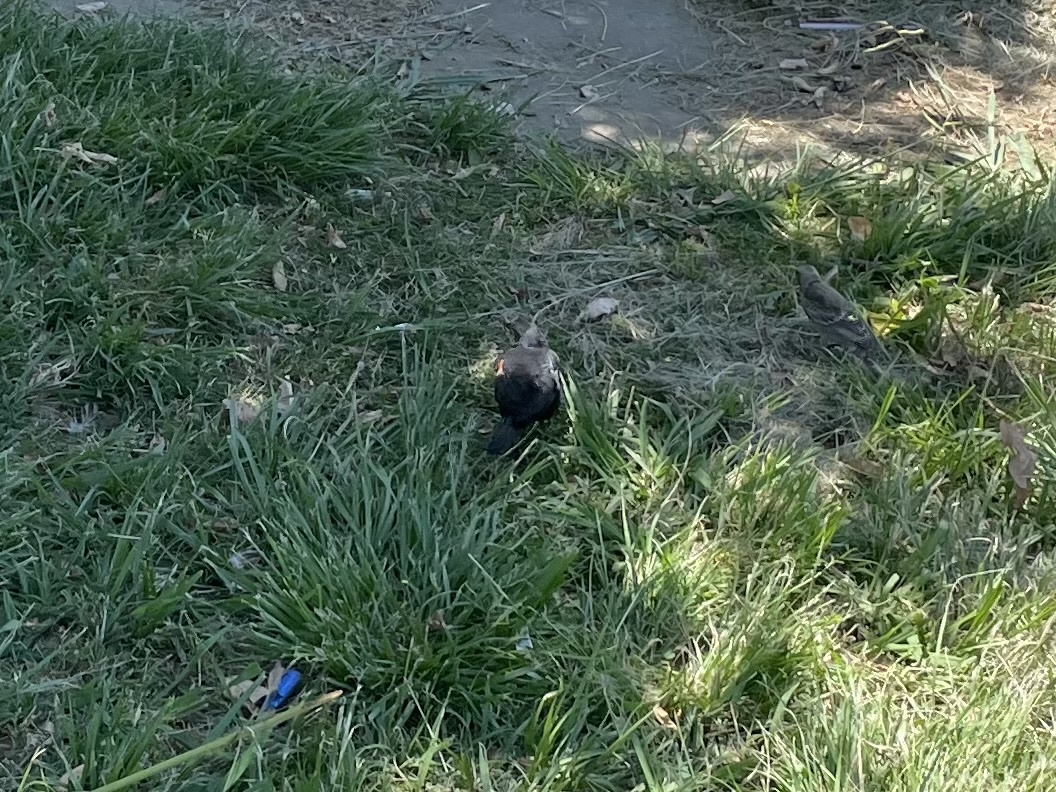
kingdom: Animalia
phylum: Chordata
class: Aves
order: Passeriformes
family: Icteridae
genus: Agelaius
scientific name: Agelaius phoeniceus
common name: Red-winged blackbird
